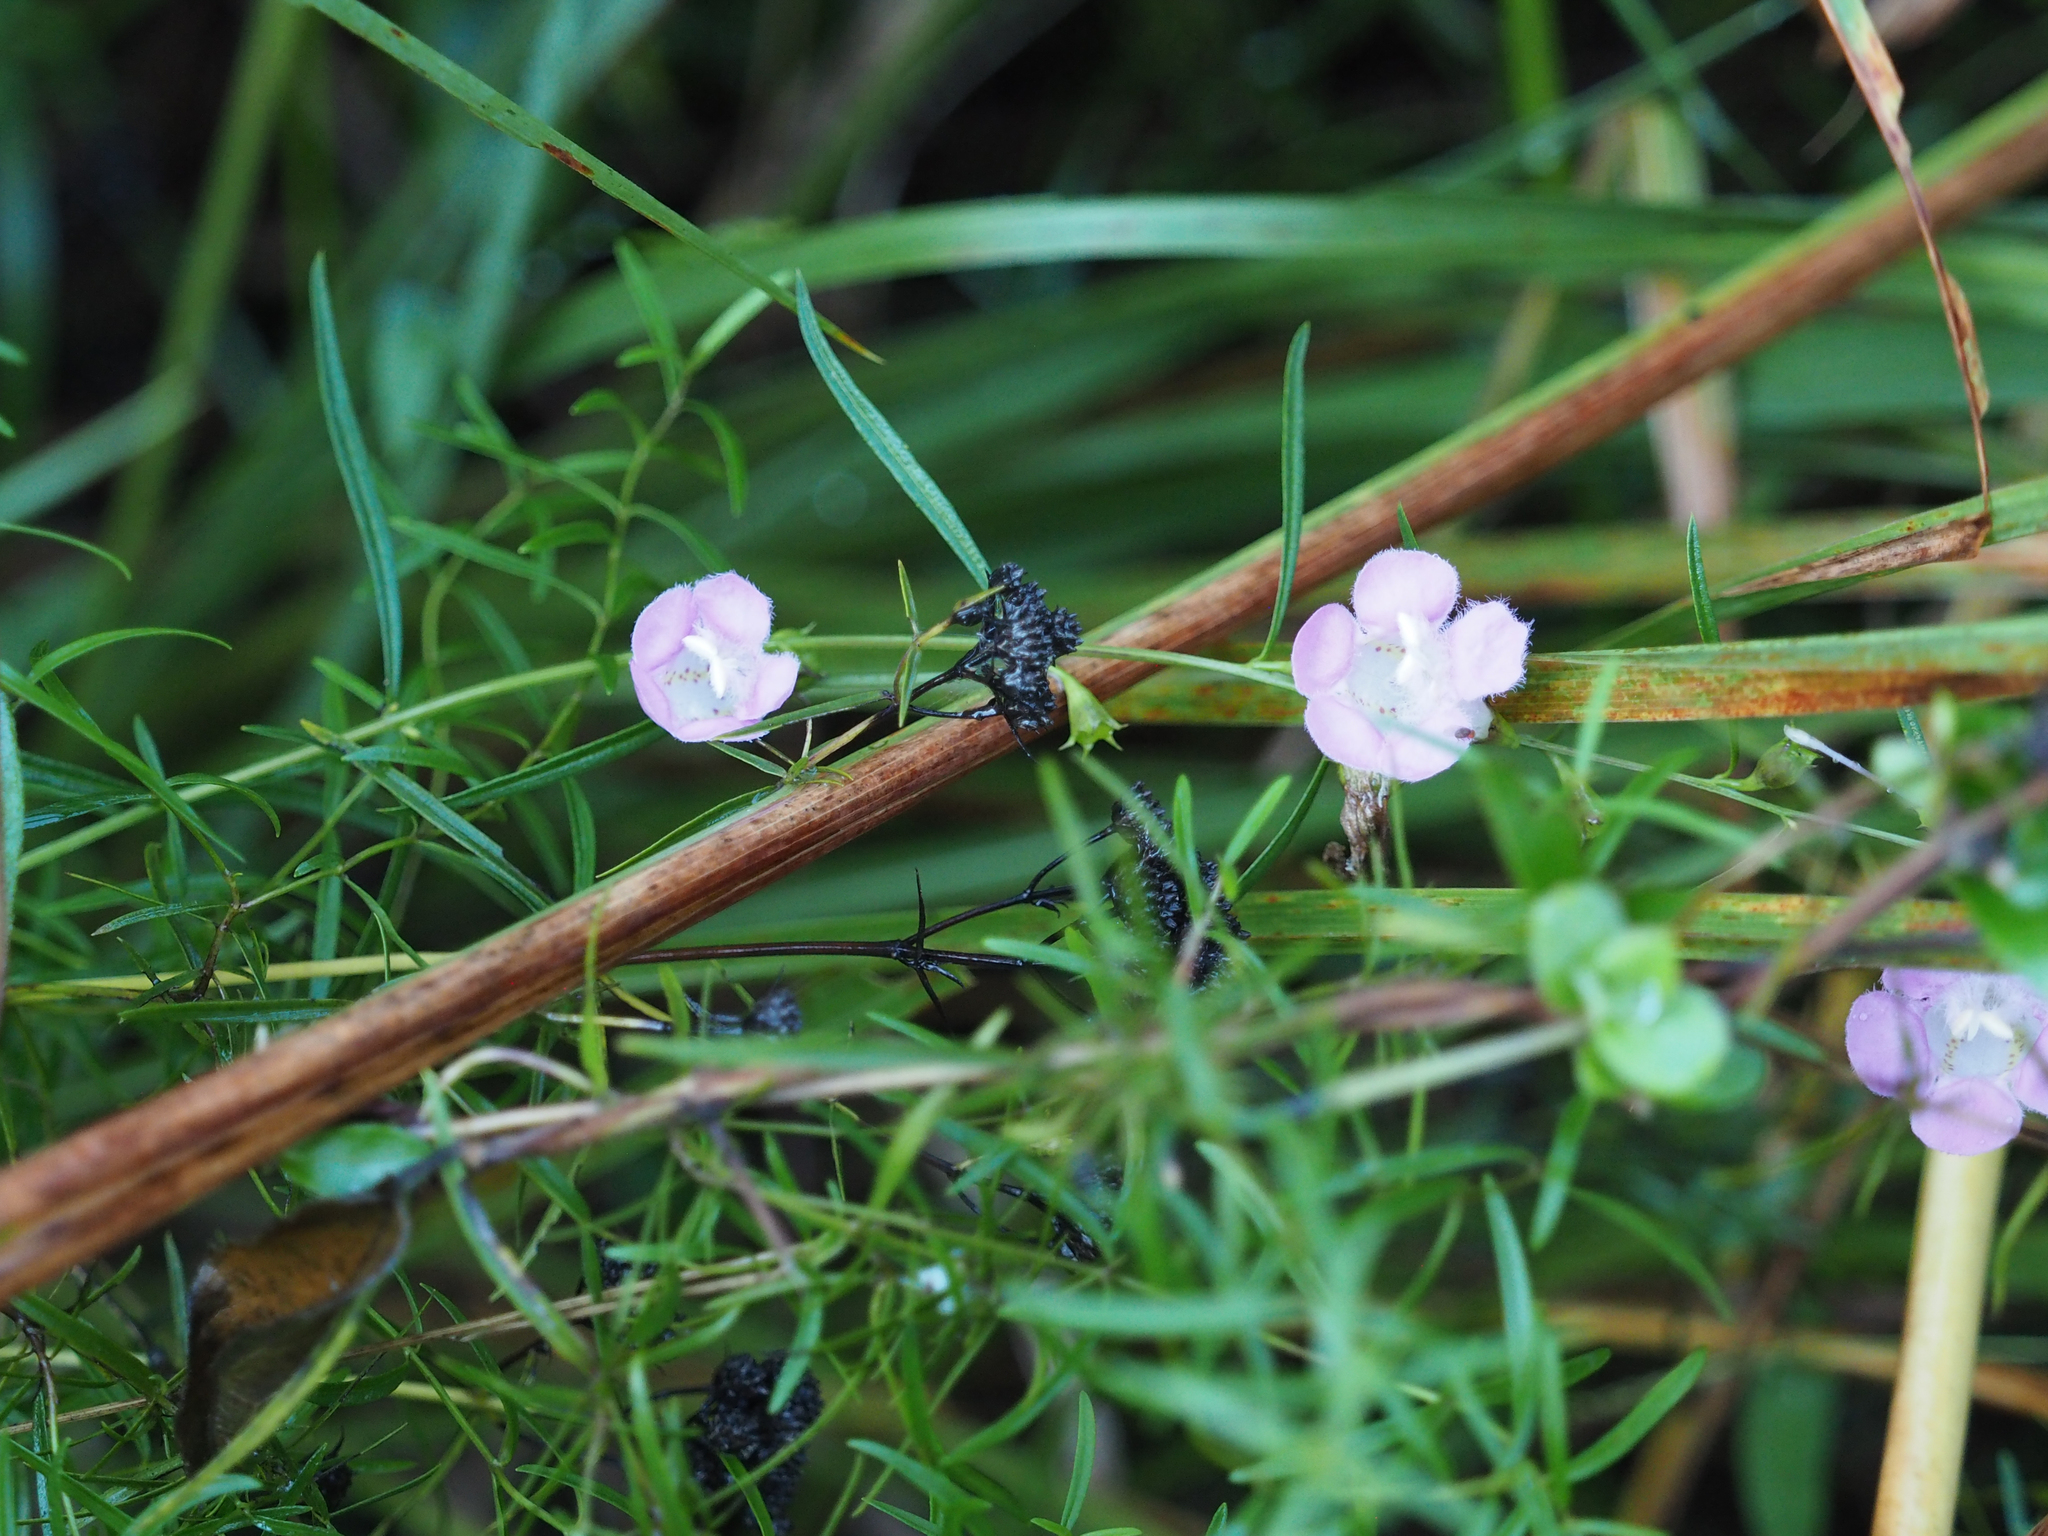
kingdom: Plantae
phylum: Tracheophyta
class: Magnoliopsida
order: Lamiales
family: Orobanchaceae
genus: Agalinis
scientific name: Agalinis purpurea
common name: Purple false foxglove
